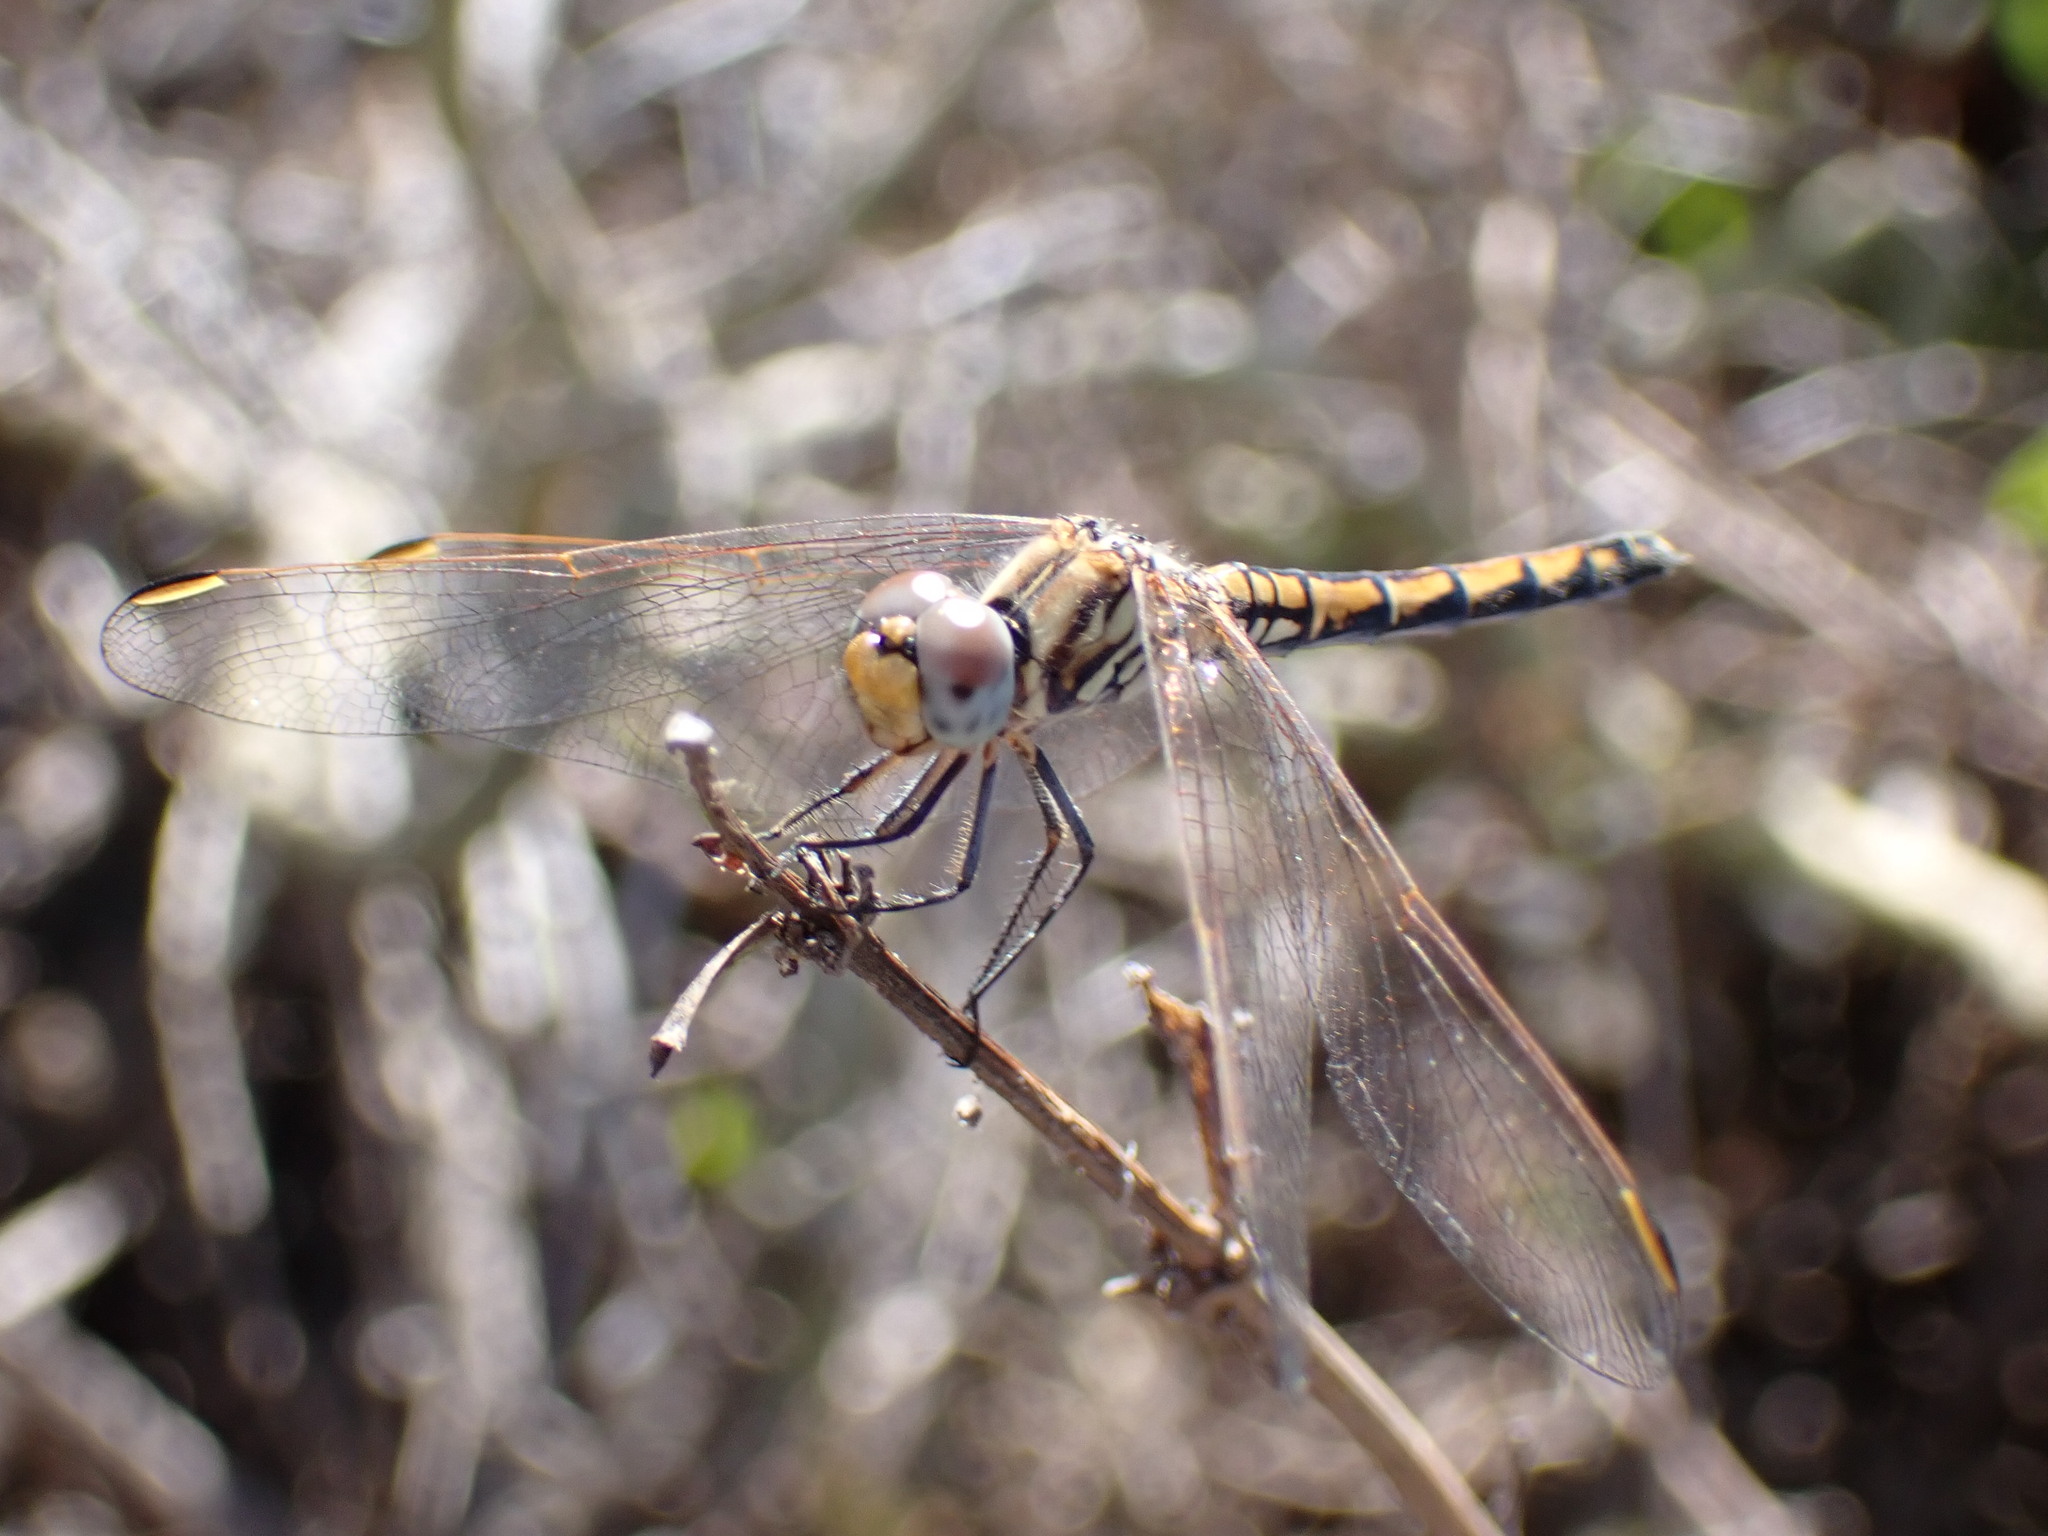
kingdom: Animalia
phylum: Arthropoda
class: Insecta
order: Odonata
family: Libellulidae
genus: Trithemis
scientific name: Trithemis arteriosa
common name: Red-veined dropwing
